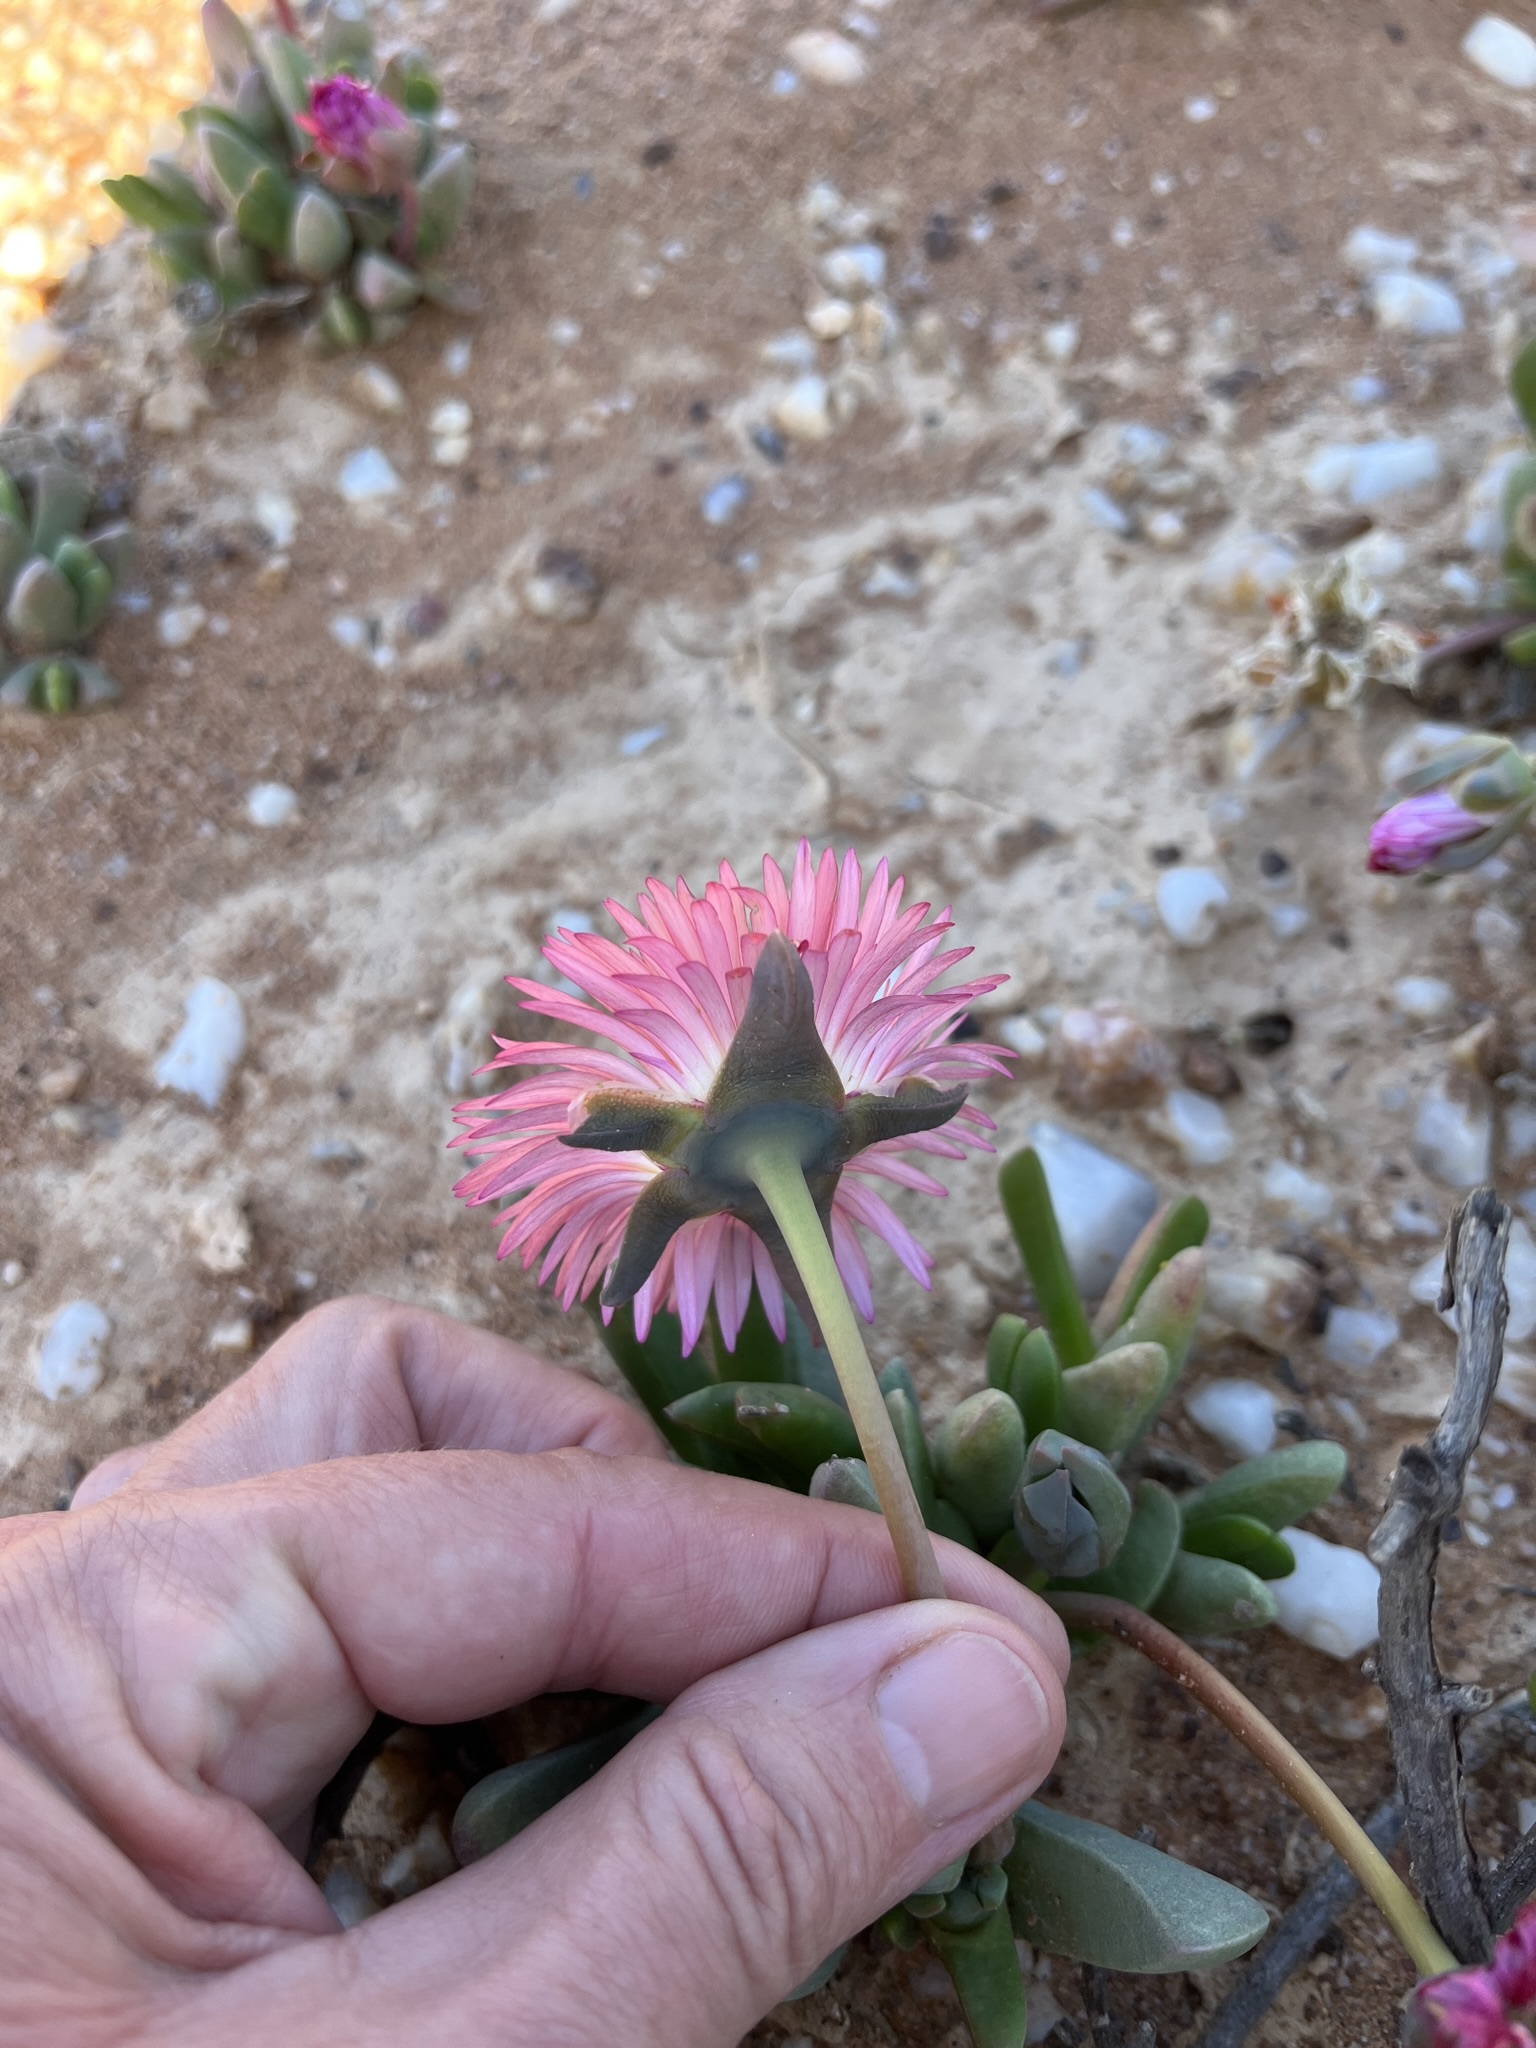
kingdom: Plantae
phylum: Tracheophyta
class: Magnoliopsida
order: Caryophyllales
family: Aizoaceae
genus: Cephalophyllum
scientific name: Cephalophyllum spissum
